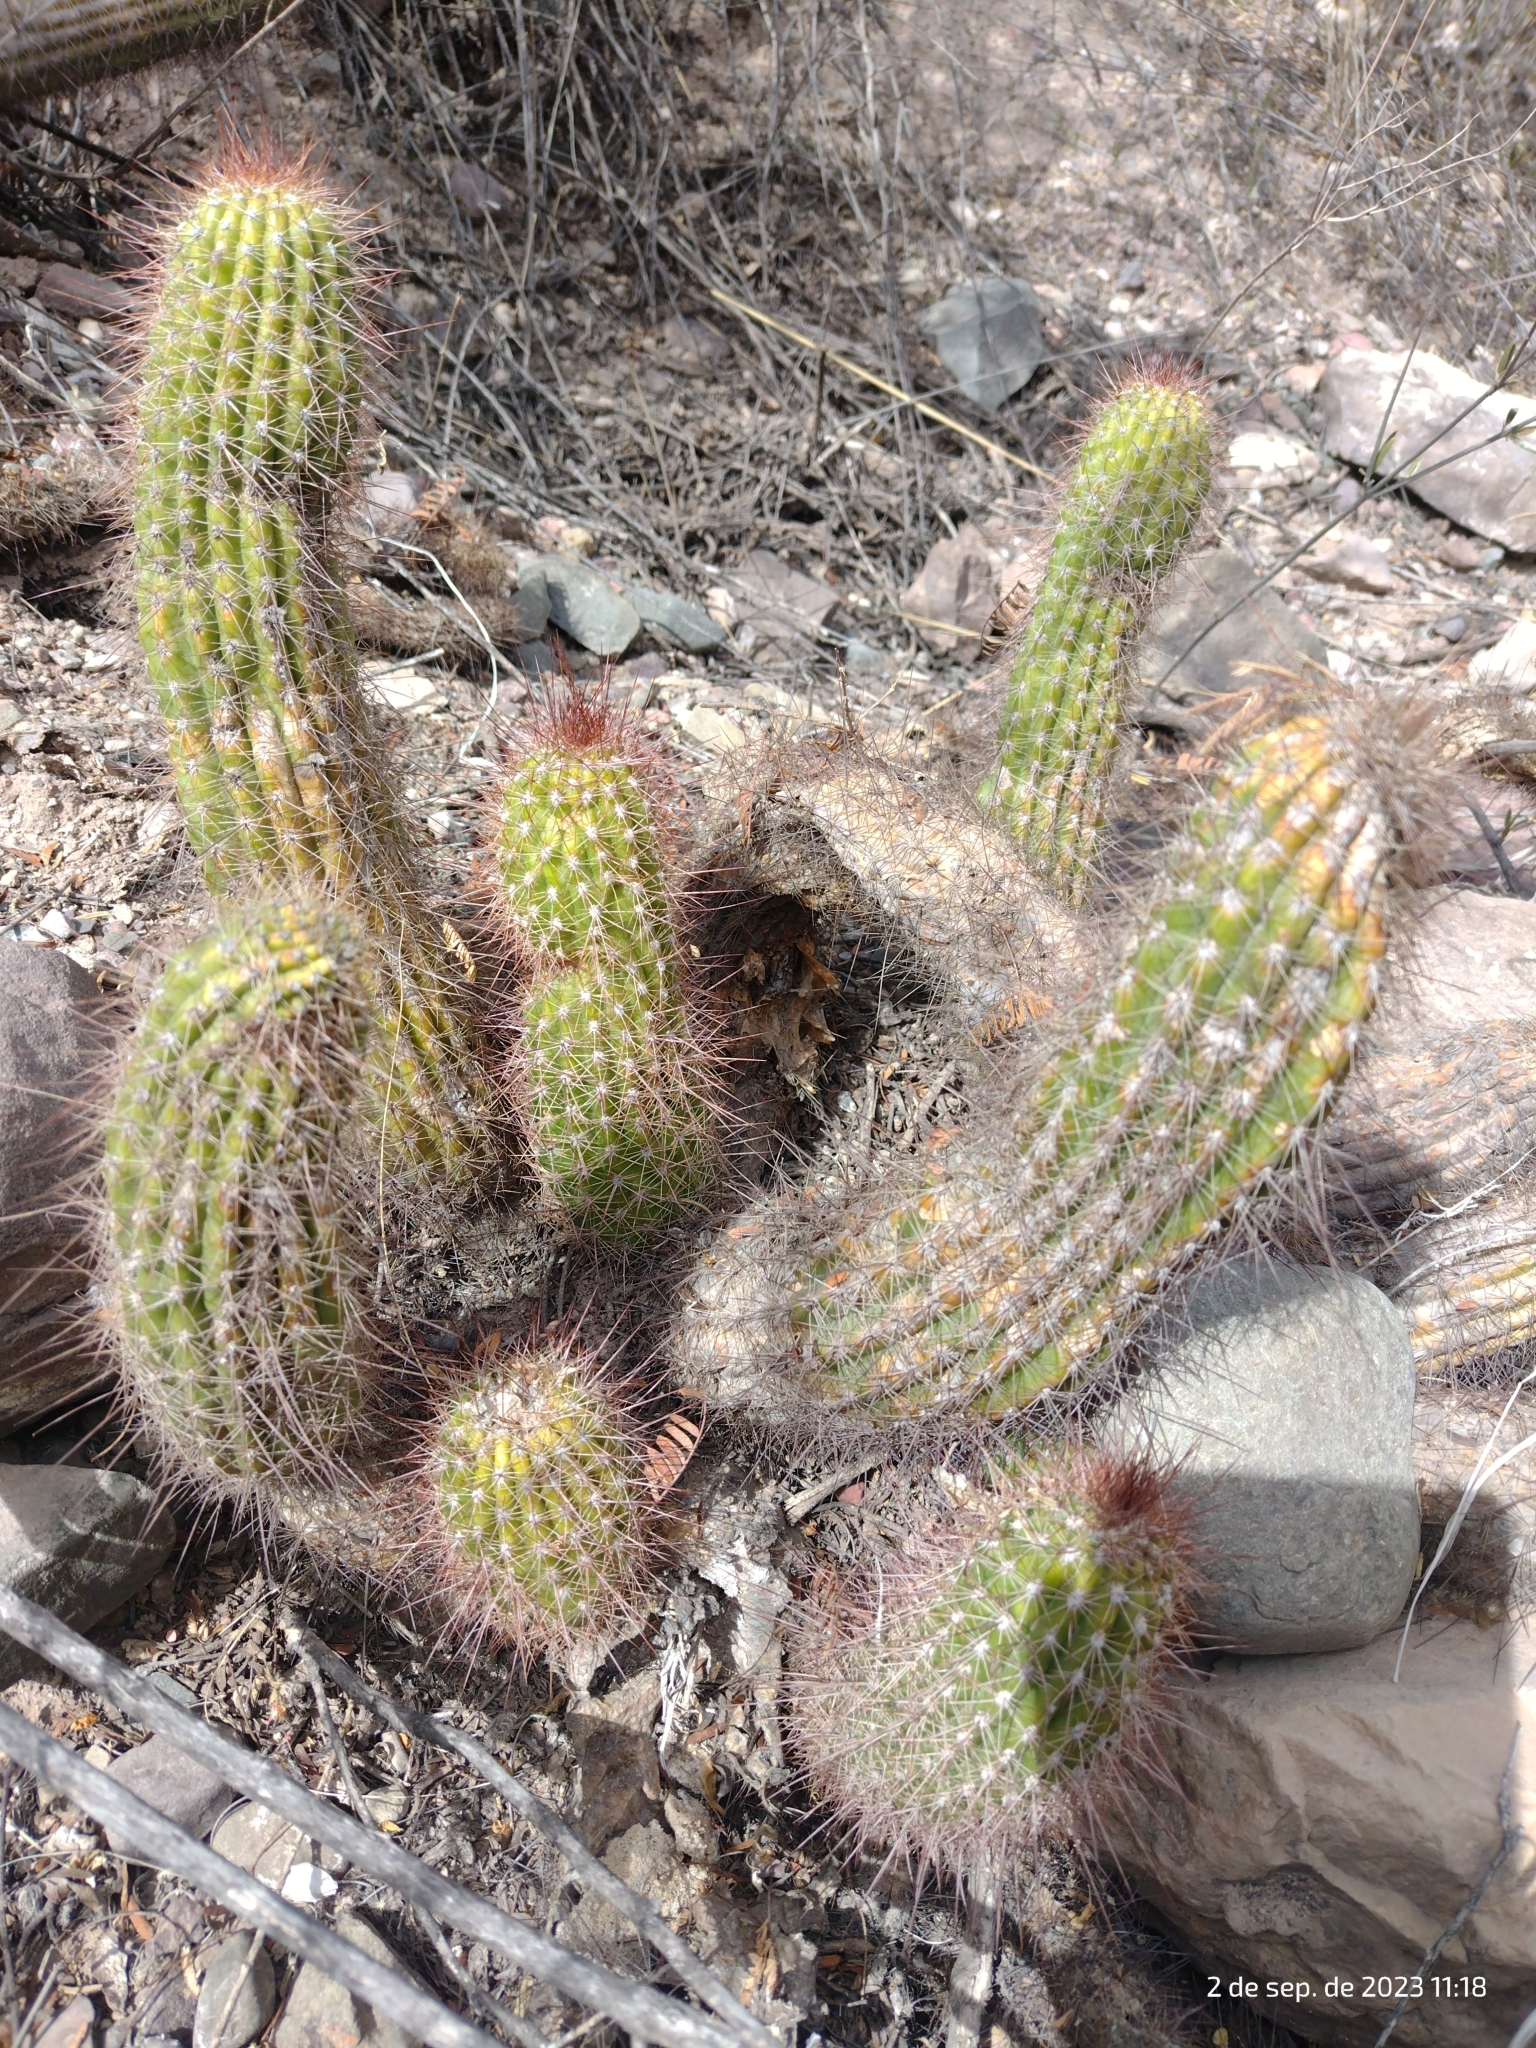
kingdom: Plantae
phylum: Tracheophyta
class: Magnoliopsida
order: Caryophyllales
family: Cactaceae
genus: Soehrensia
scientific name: Soehrensia strigosa
